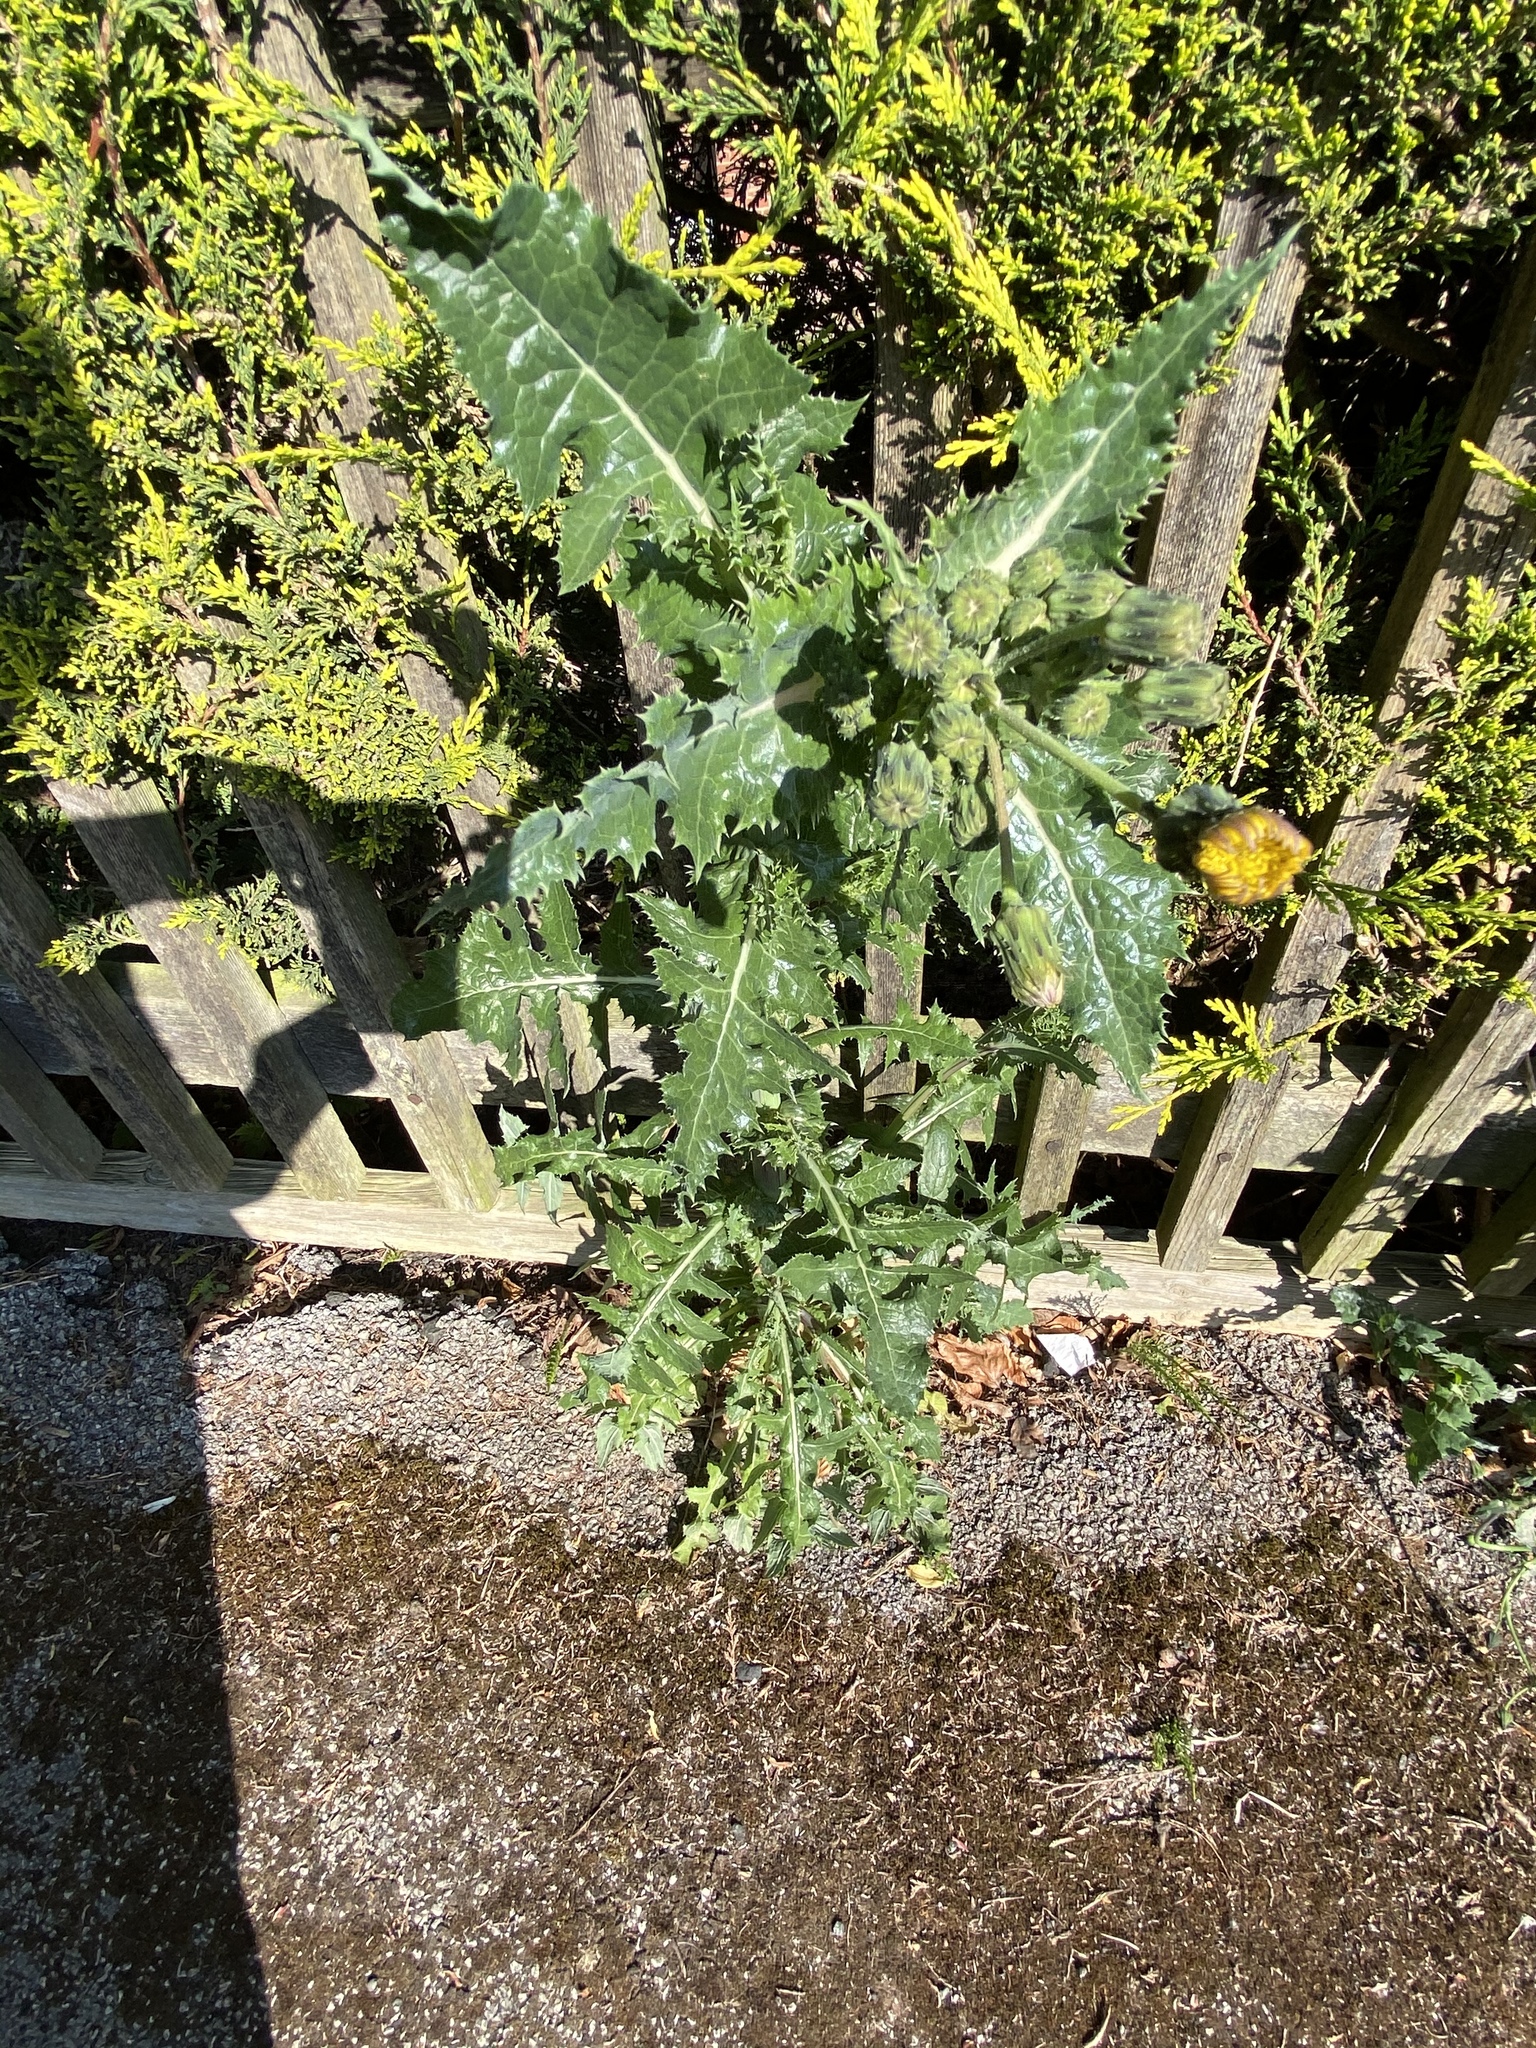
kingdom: Plantae
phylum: Tracheophyta
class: Magnoliopsida
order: Asterales
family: Asteraceae
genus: Sonchus
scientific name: Sonchus asper
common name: Prickly sow-thistle
